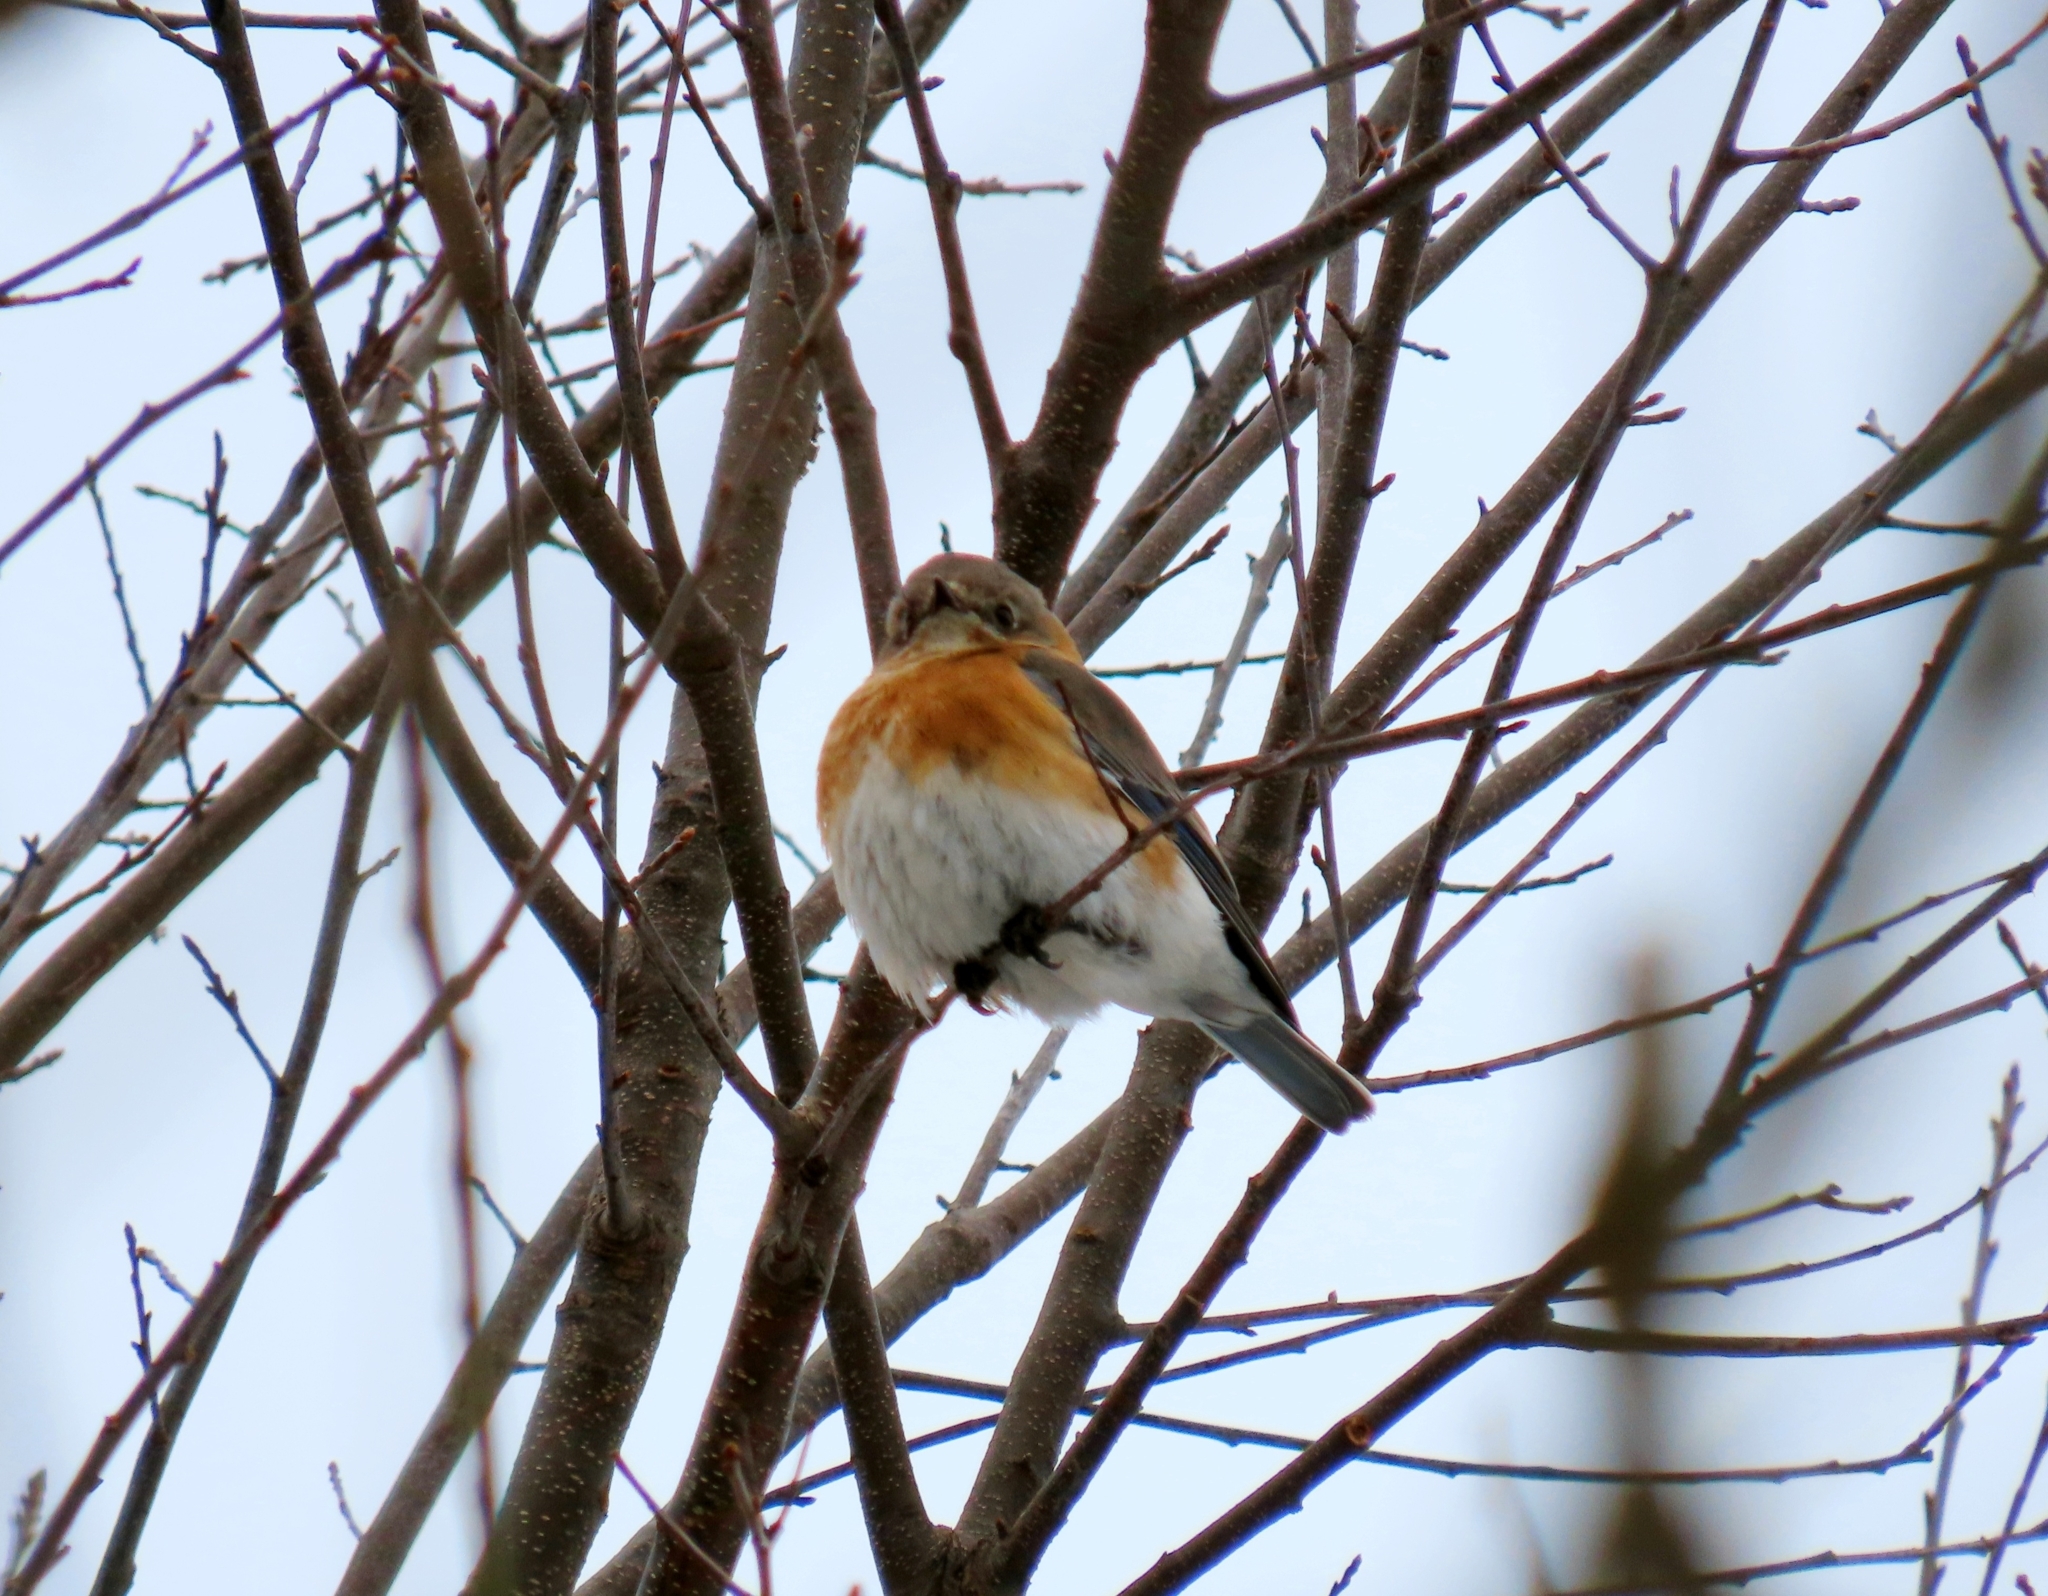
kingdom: Animalia
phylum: Chordata
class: Aves
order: Passeriformes
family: Turdidae
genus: Sialia
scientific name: Sialia sialis
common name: Eastern bluebird
